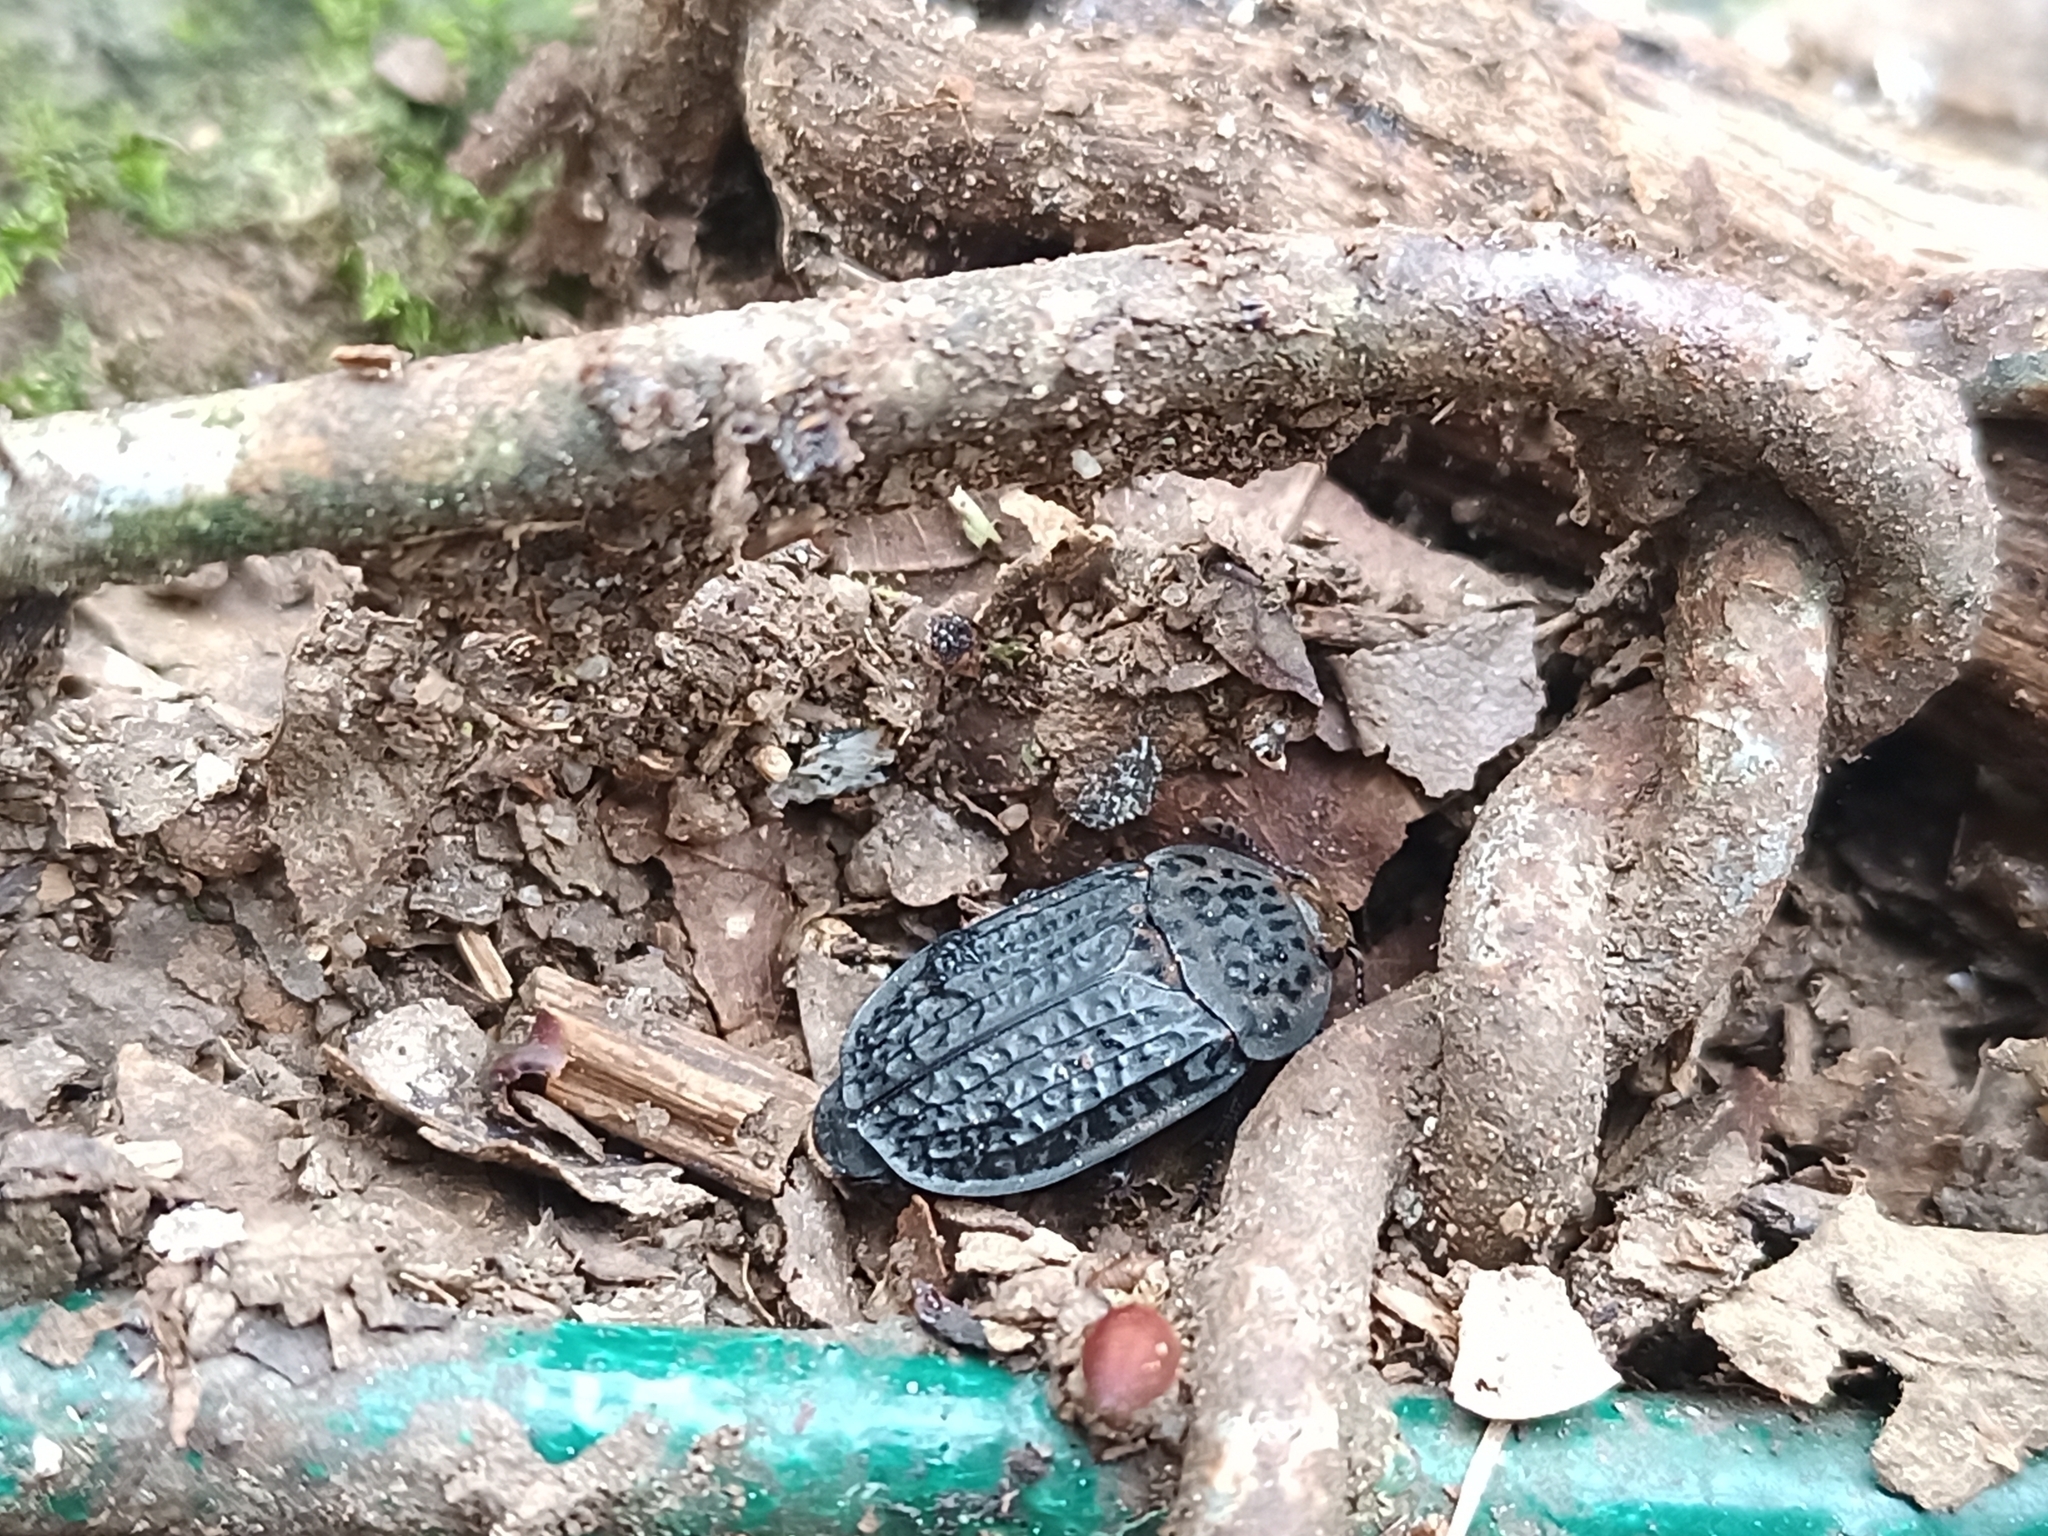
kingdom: Animalia
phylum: Arthropoda
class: Insecta
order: Coleoptera
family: Staphylinidae
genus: Thanatophilus
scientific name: Thanatophilus rugosus
